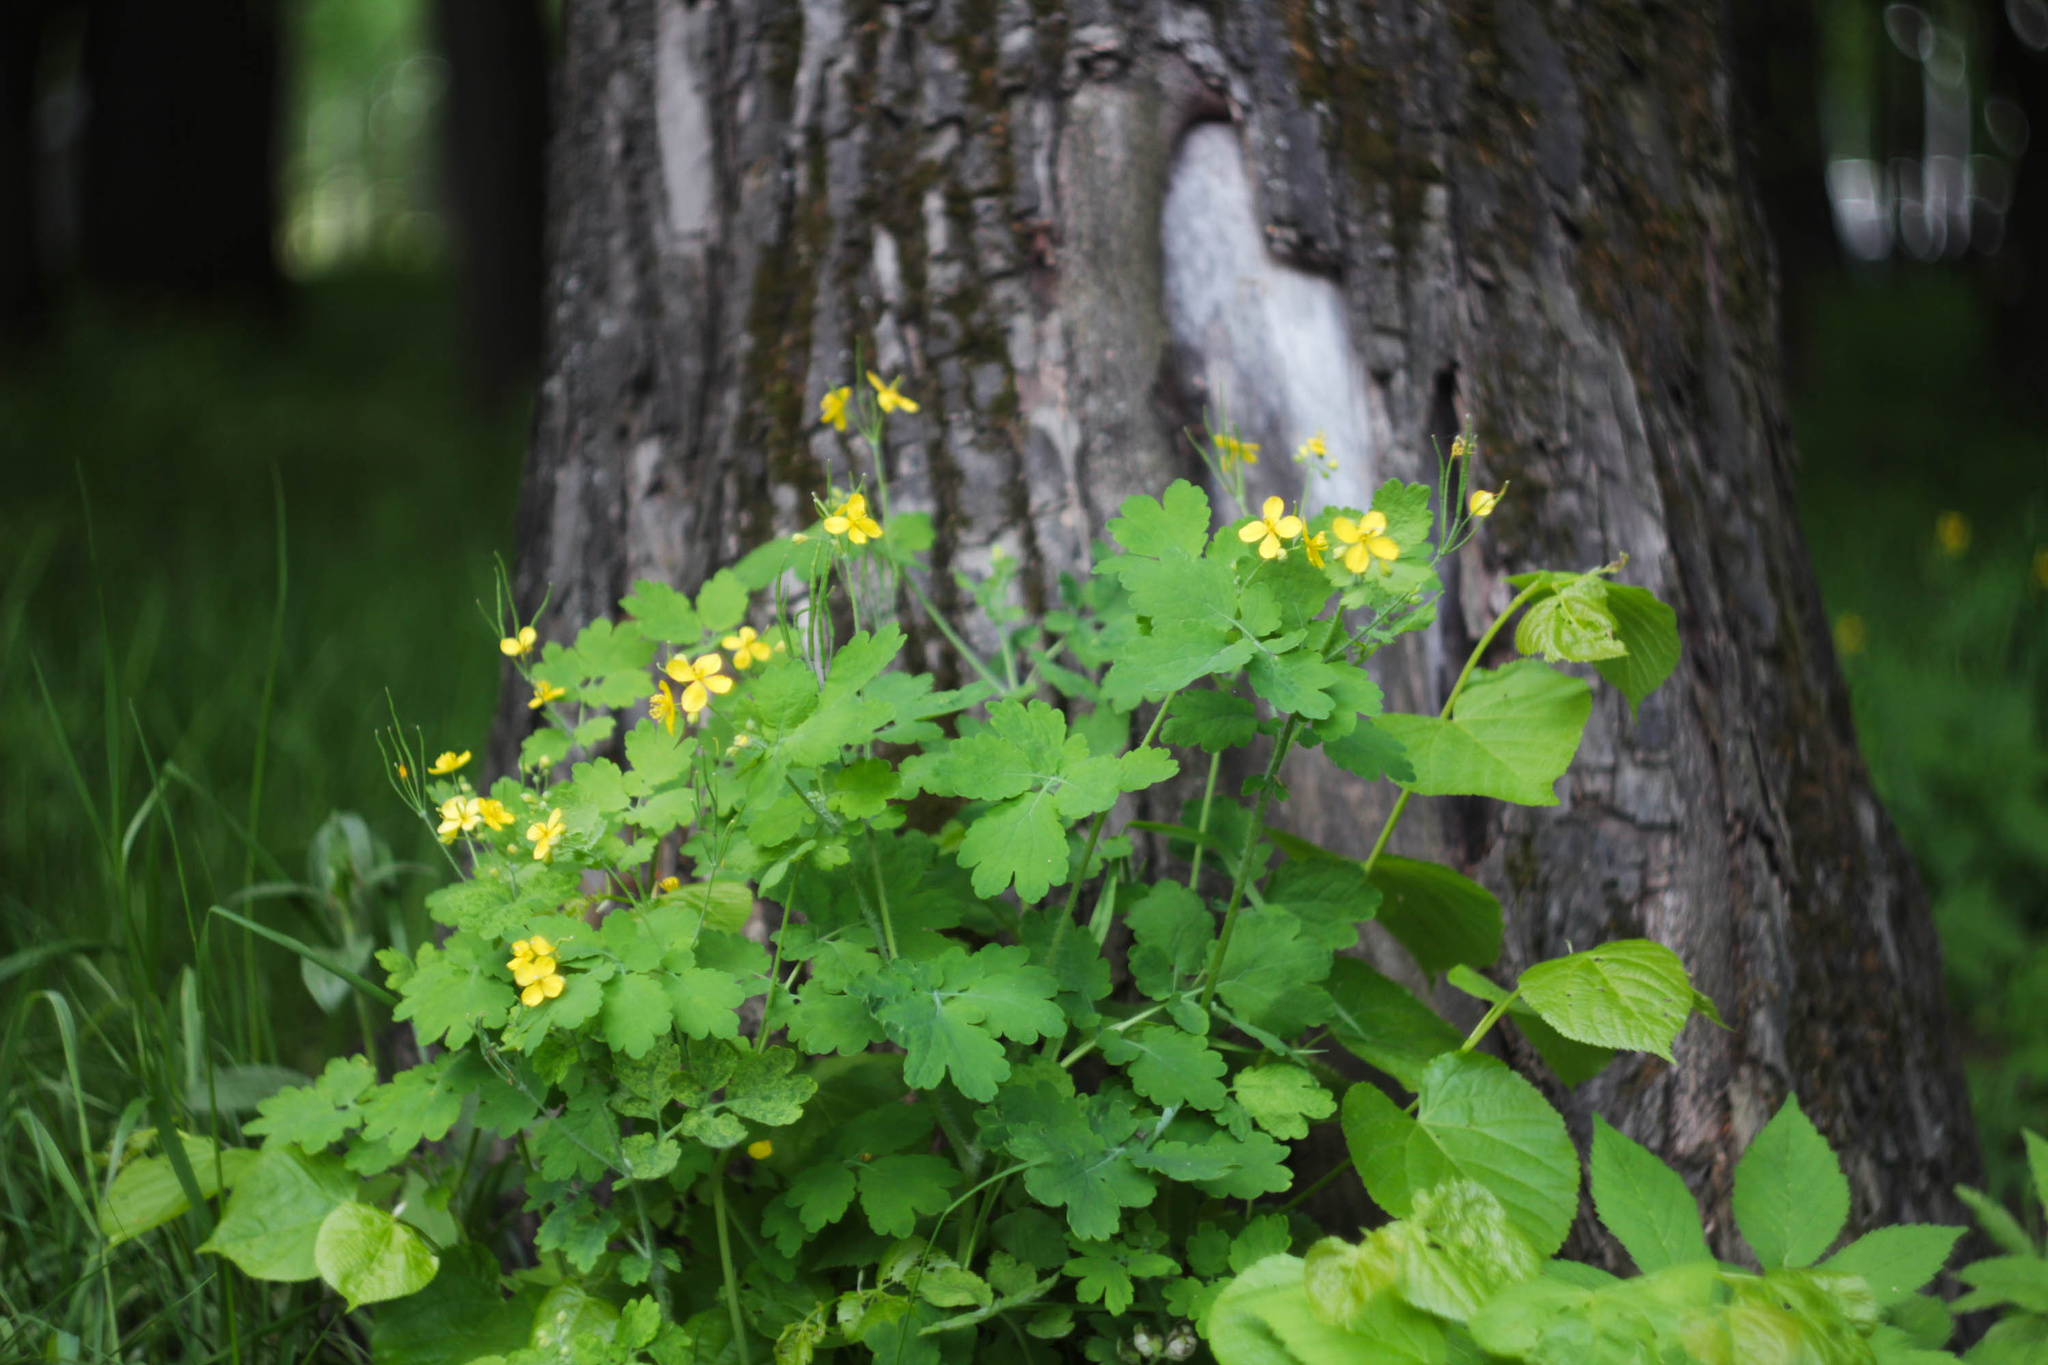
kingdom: Plantae
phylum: Tracheophyta
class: Magnoliopsida
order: Ranunculales
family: Papaveraceae
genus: Chelidonium
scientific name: Chelidonium majus
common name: Greater celandine
